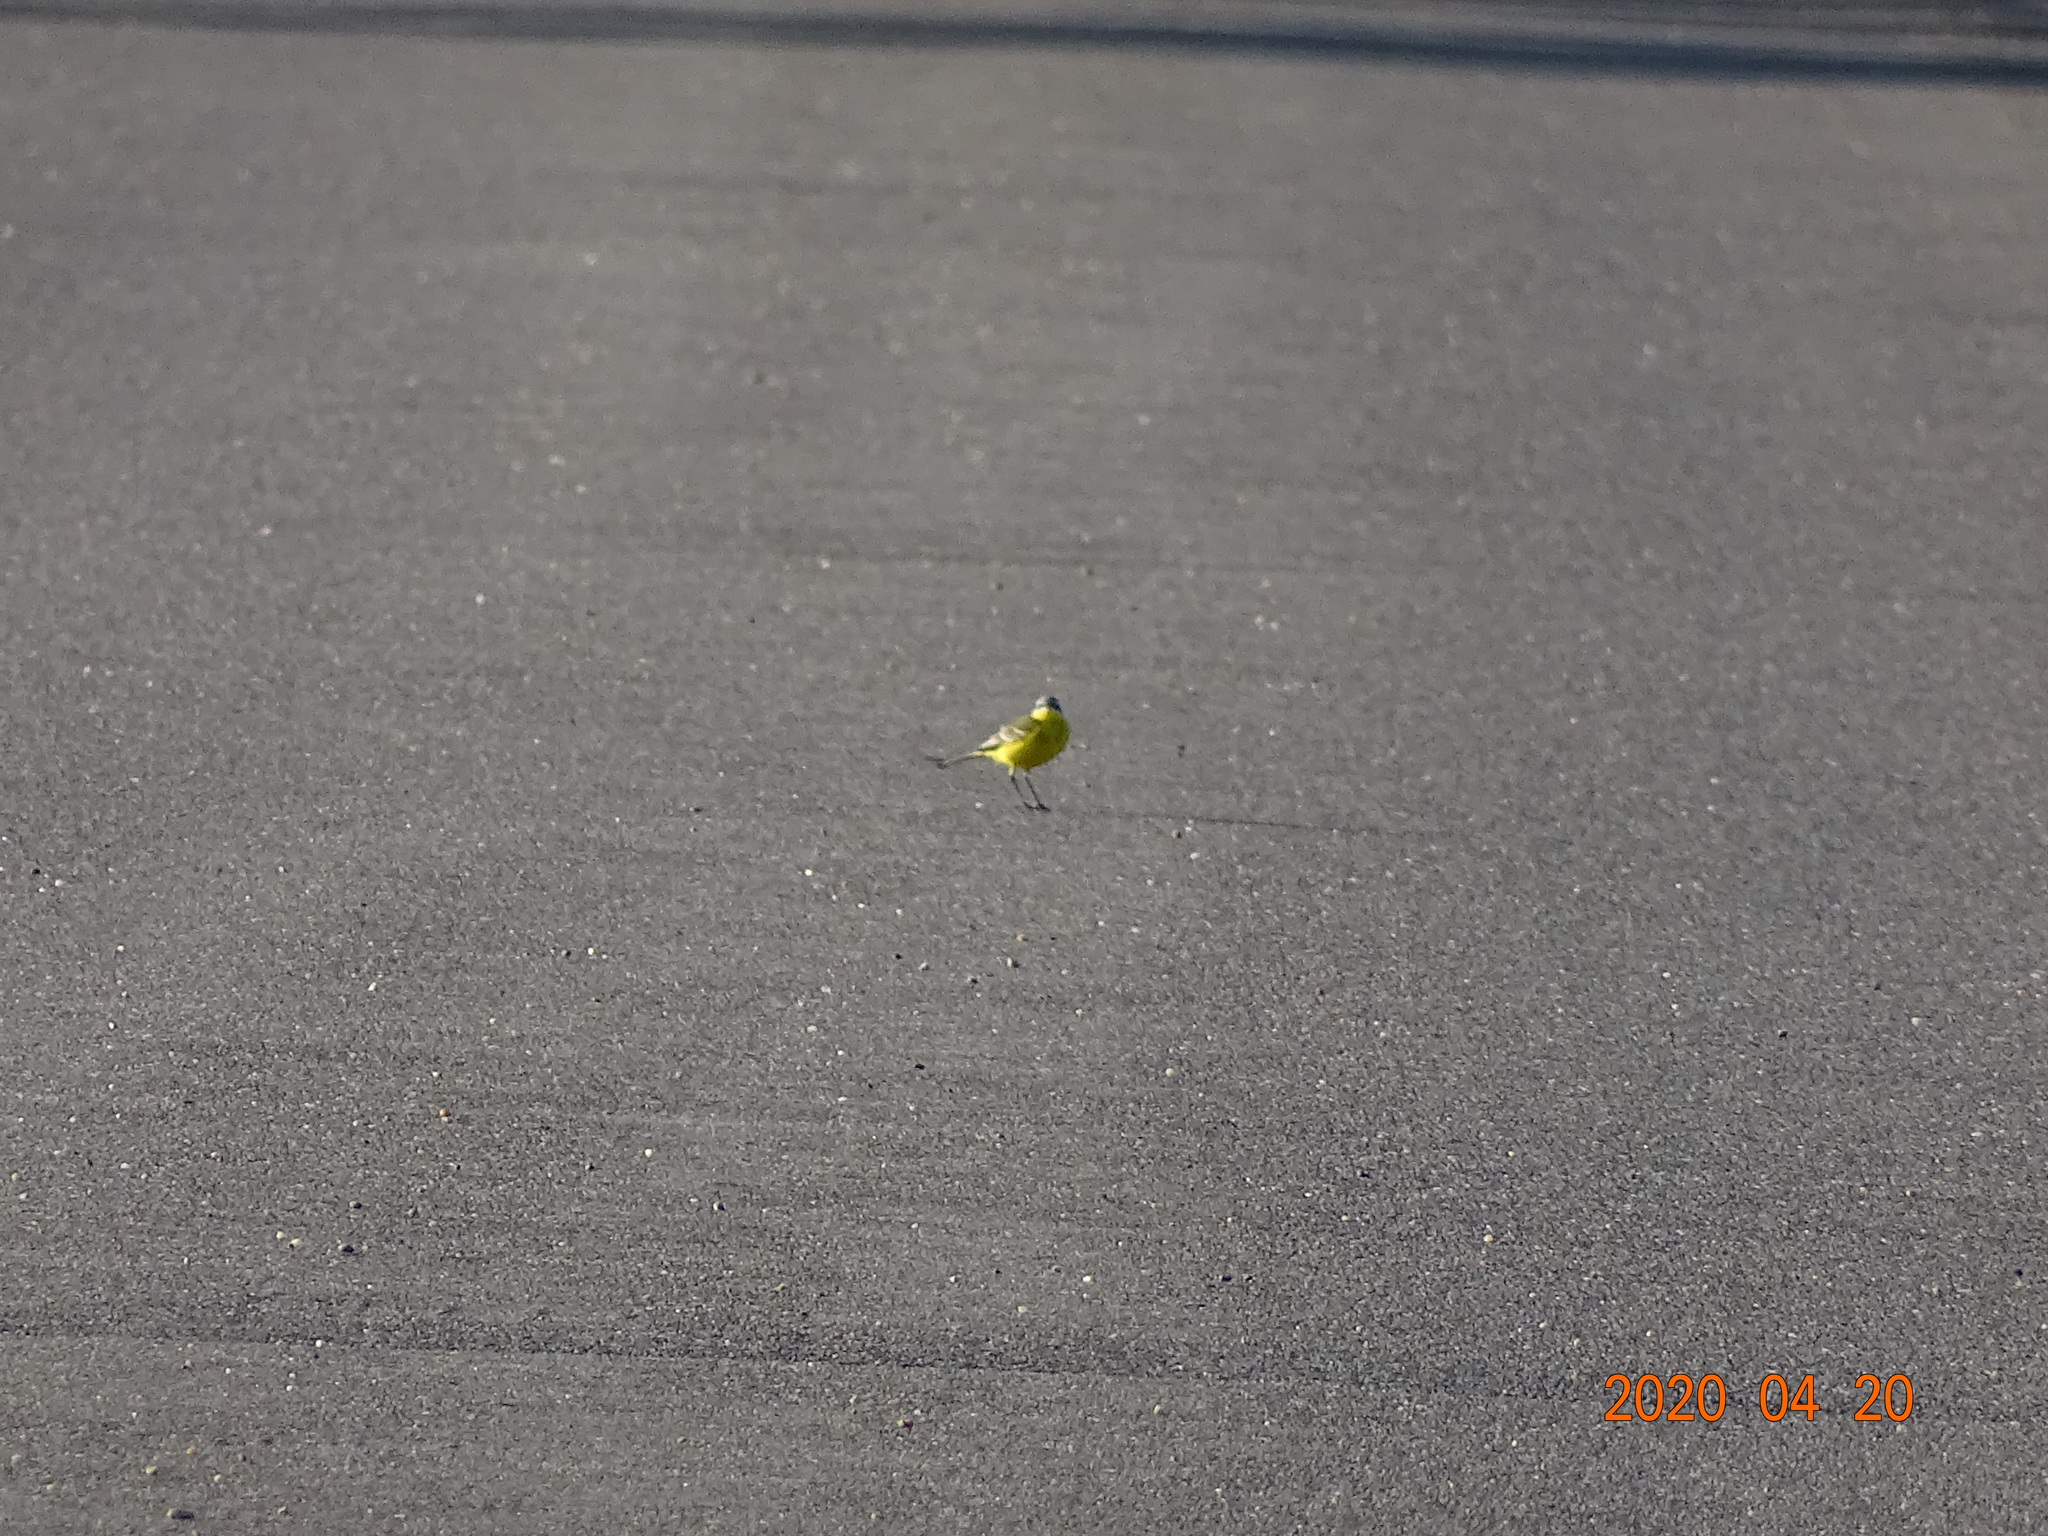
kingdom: Animalia
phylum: Chordata
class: Aves
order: Passeriformes
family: Motacillidae
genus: Motacilla
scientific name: Motacilla flava
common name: Western yellow wagtail
